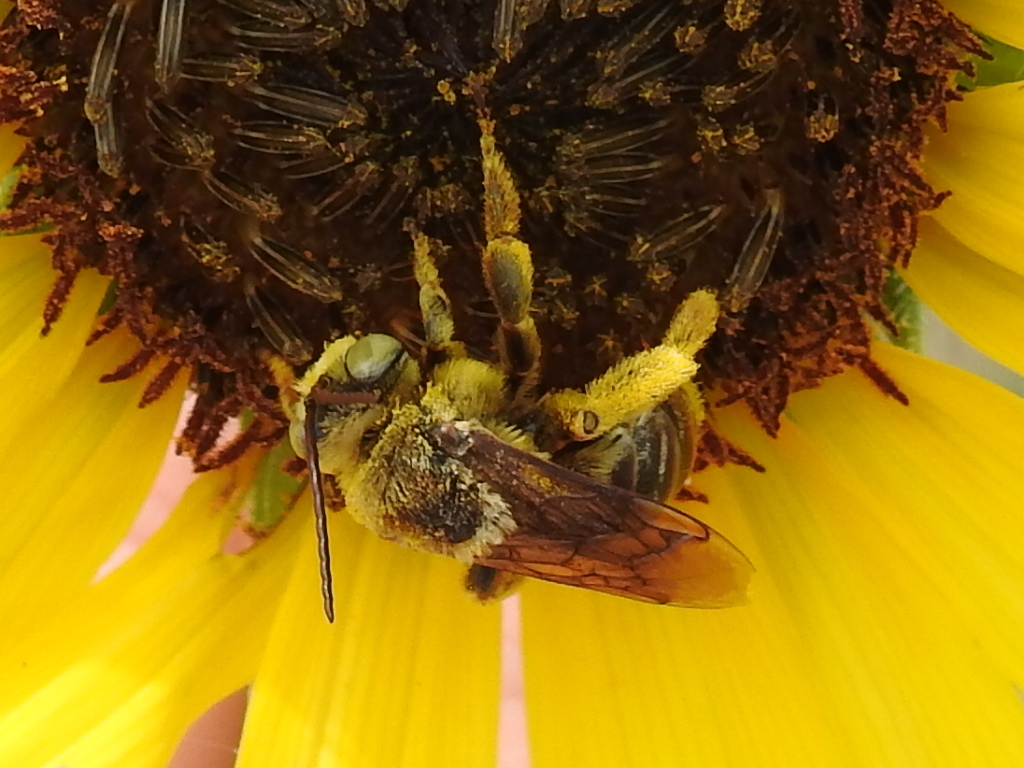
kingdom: Animalia
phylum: Arthropoda
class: Insecta
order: Hymenoptera
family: Apidae
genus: Svastra
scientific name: Svastra obliqua
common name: Oblique longhorn
